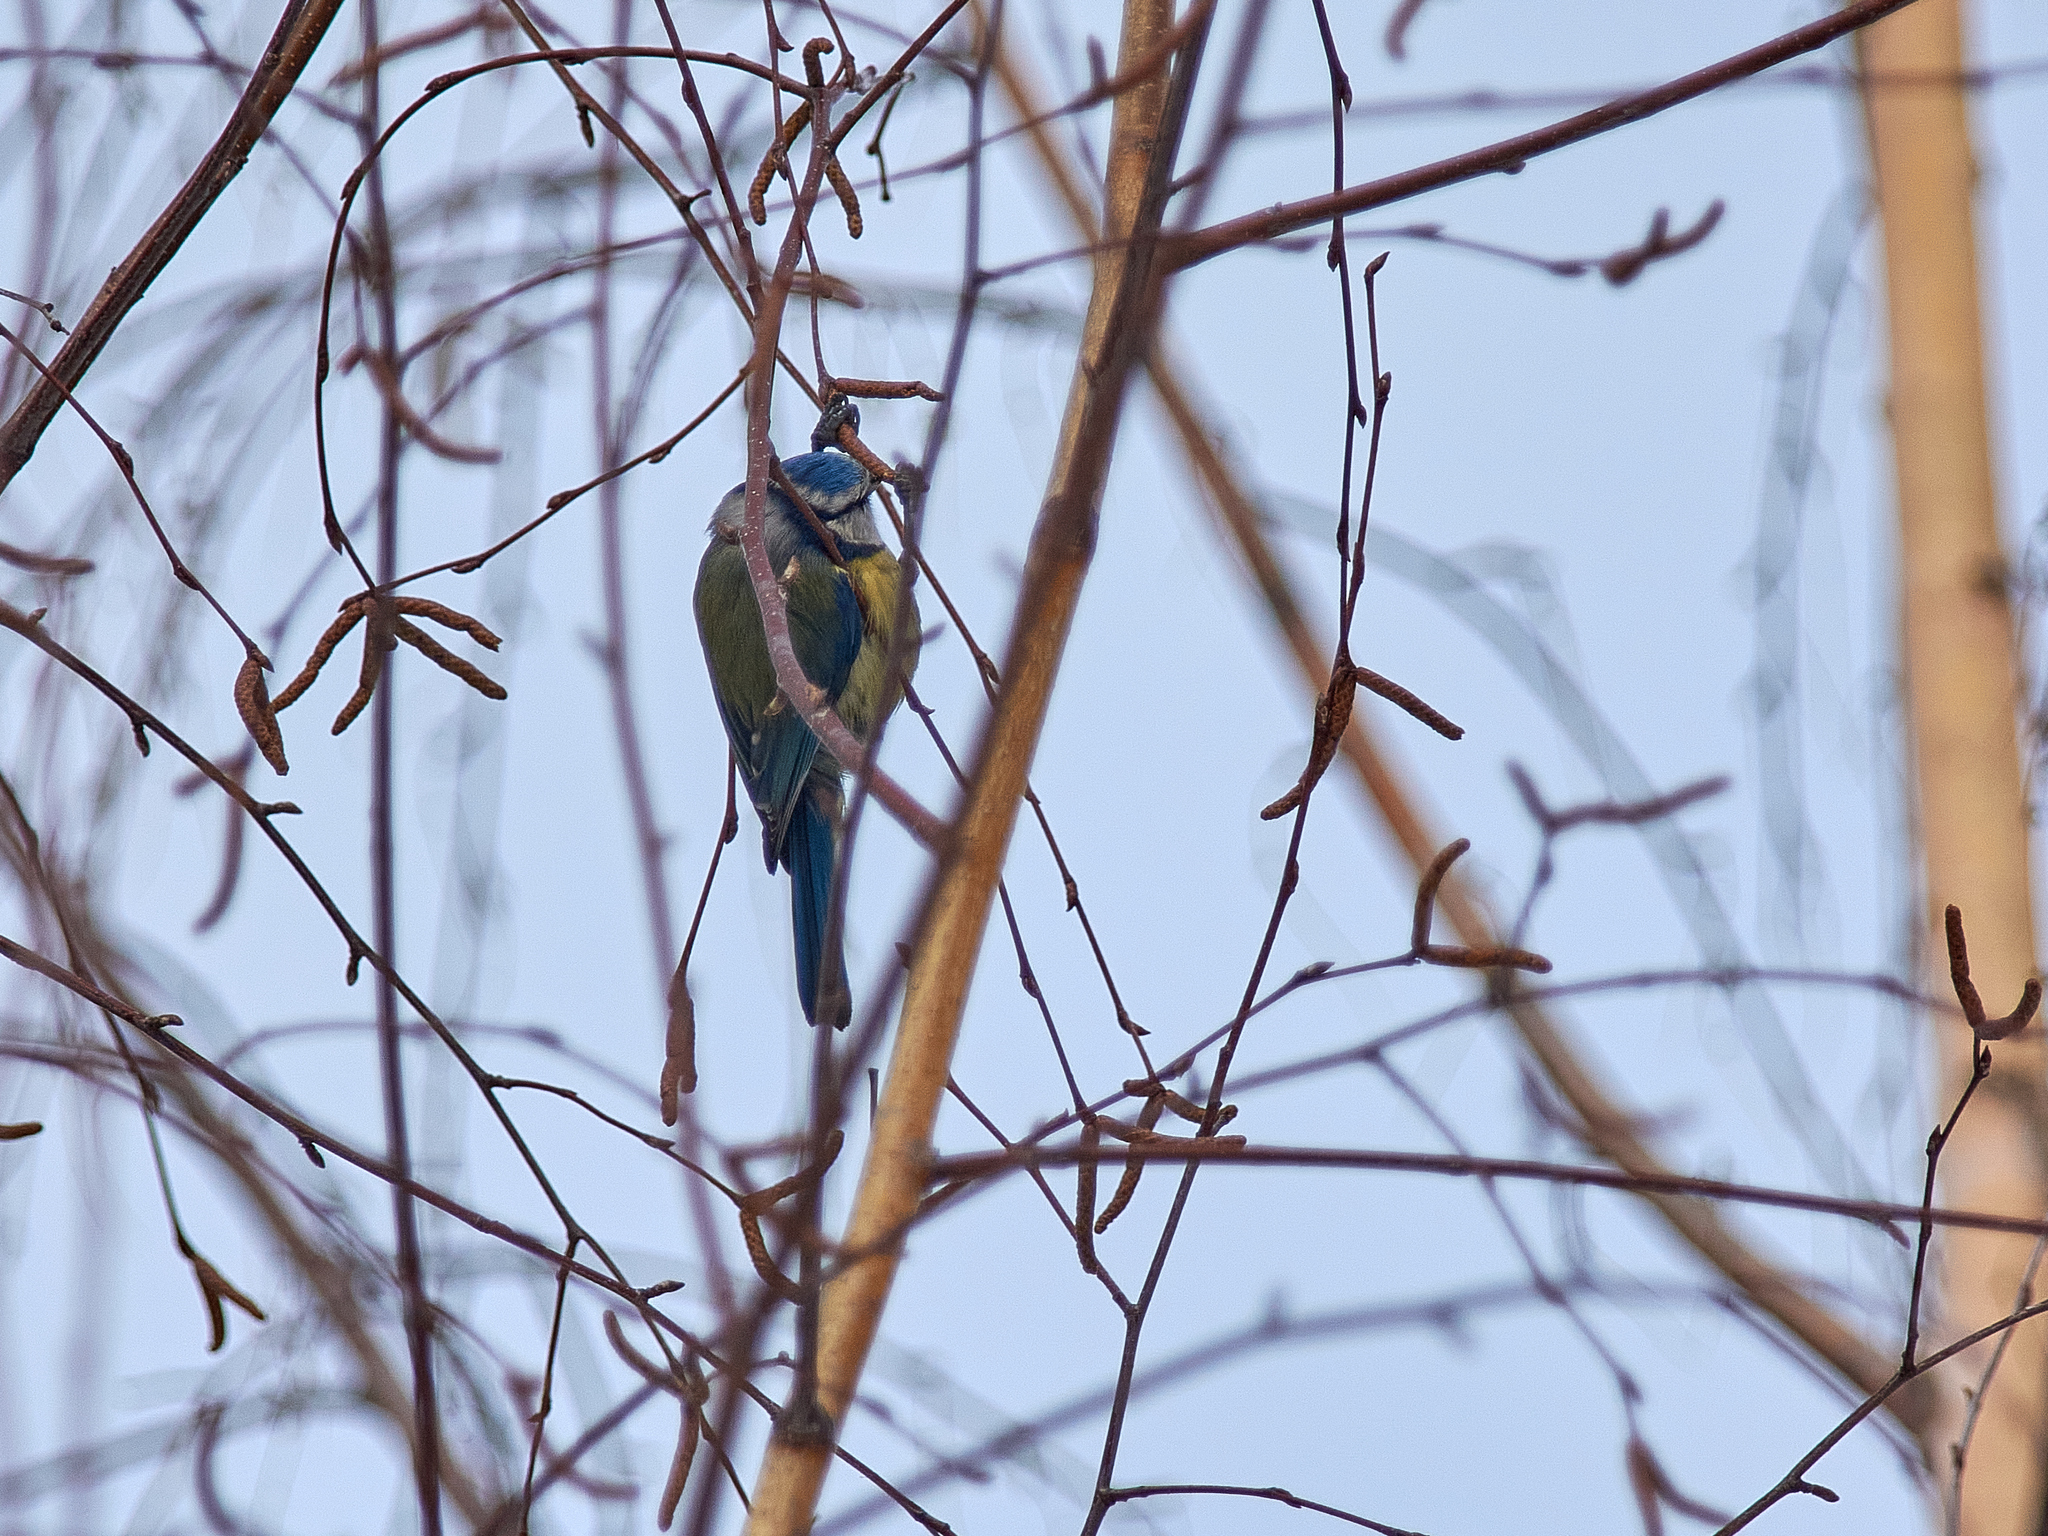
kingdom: Animalia
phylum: Chordata
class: Aves
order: Passeriformes
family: Paridae
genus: Cyanistes
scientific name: Cyanistes caeruleus
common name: Eurasian blue tit
